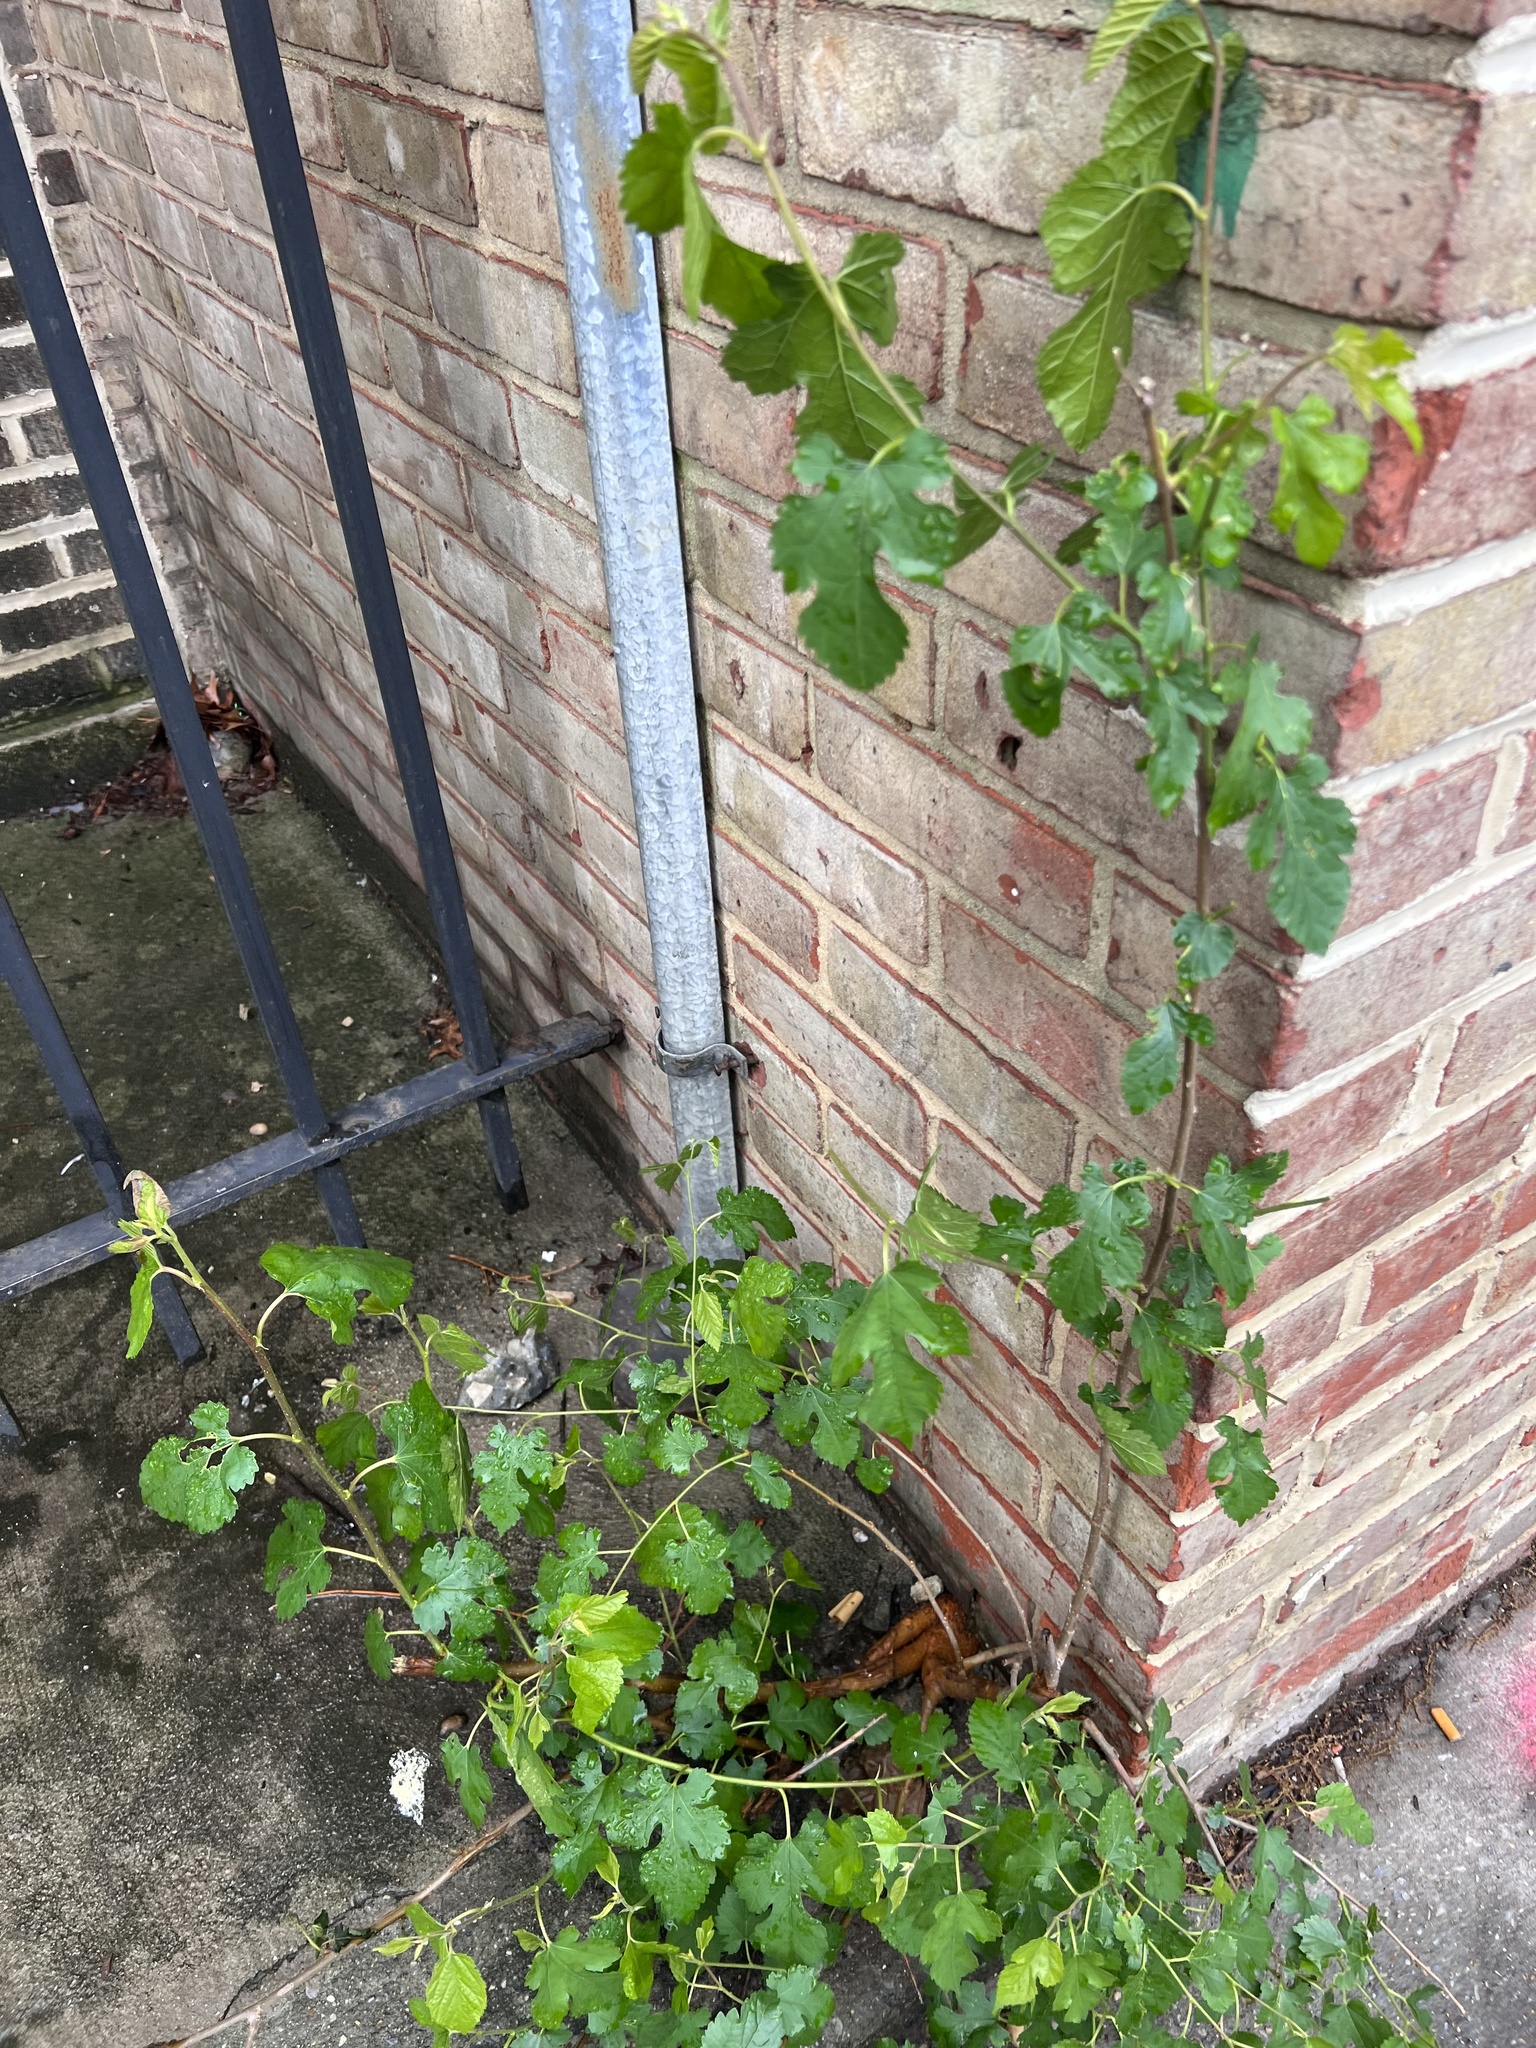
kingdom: Plantae
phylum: Tracheophyta
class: Magnoliopsida
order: Rosales
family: Moraceae
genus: Morus
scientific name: Morus alba
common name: White mulberry
